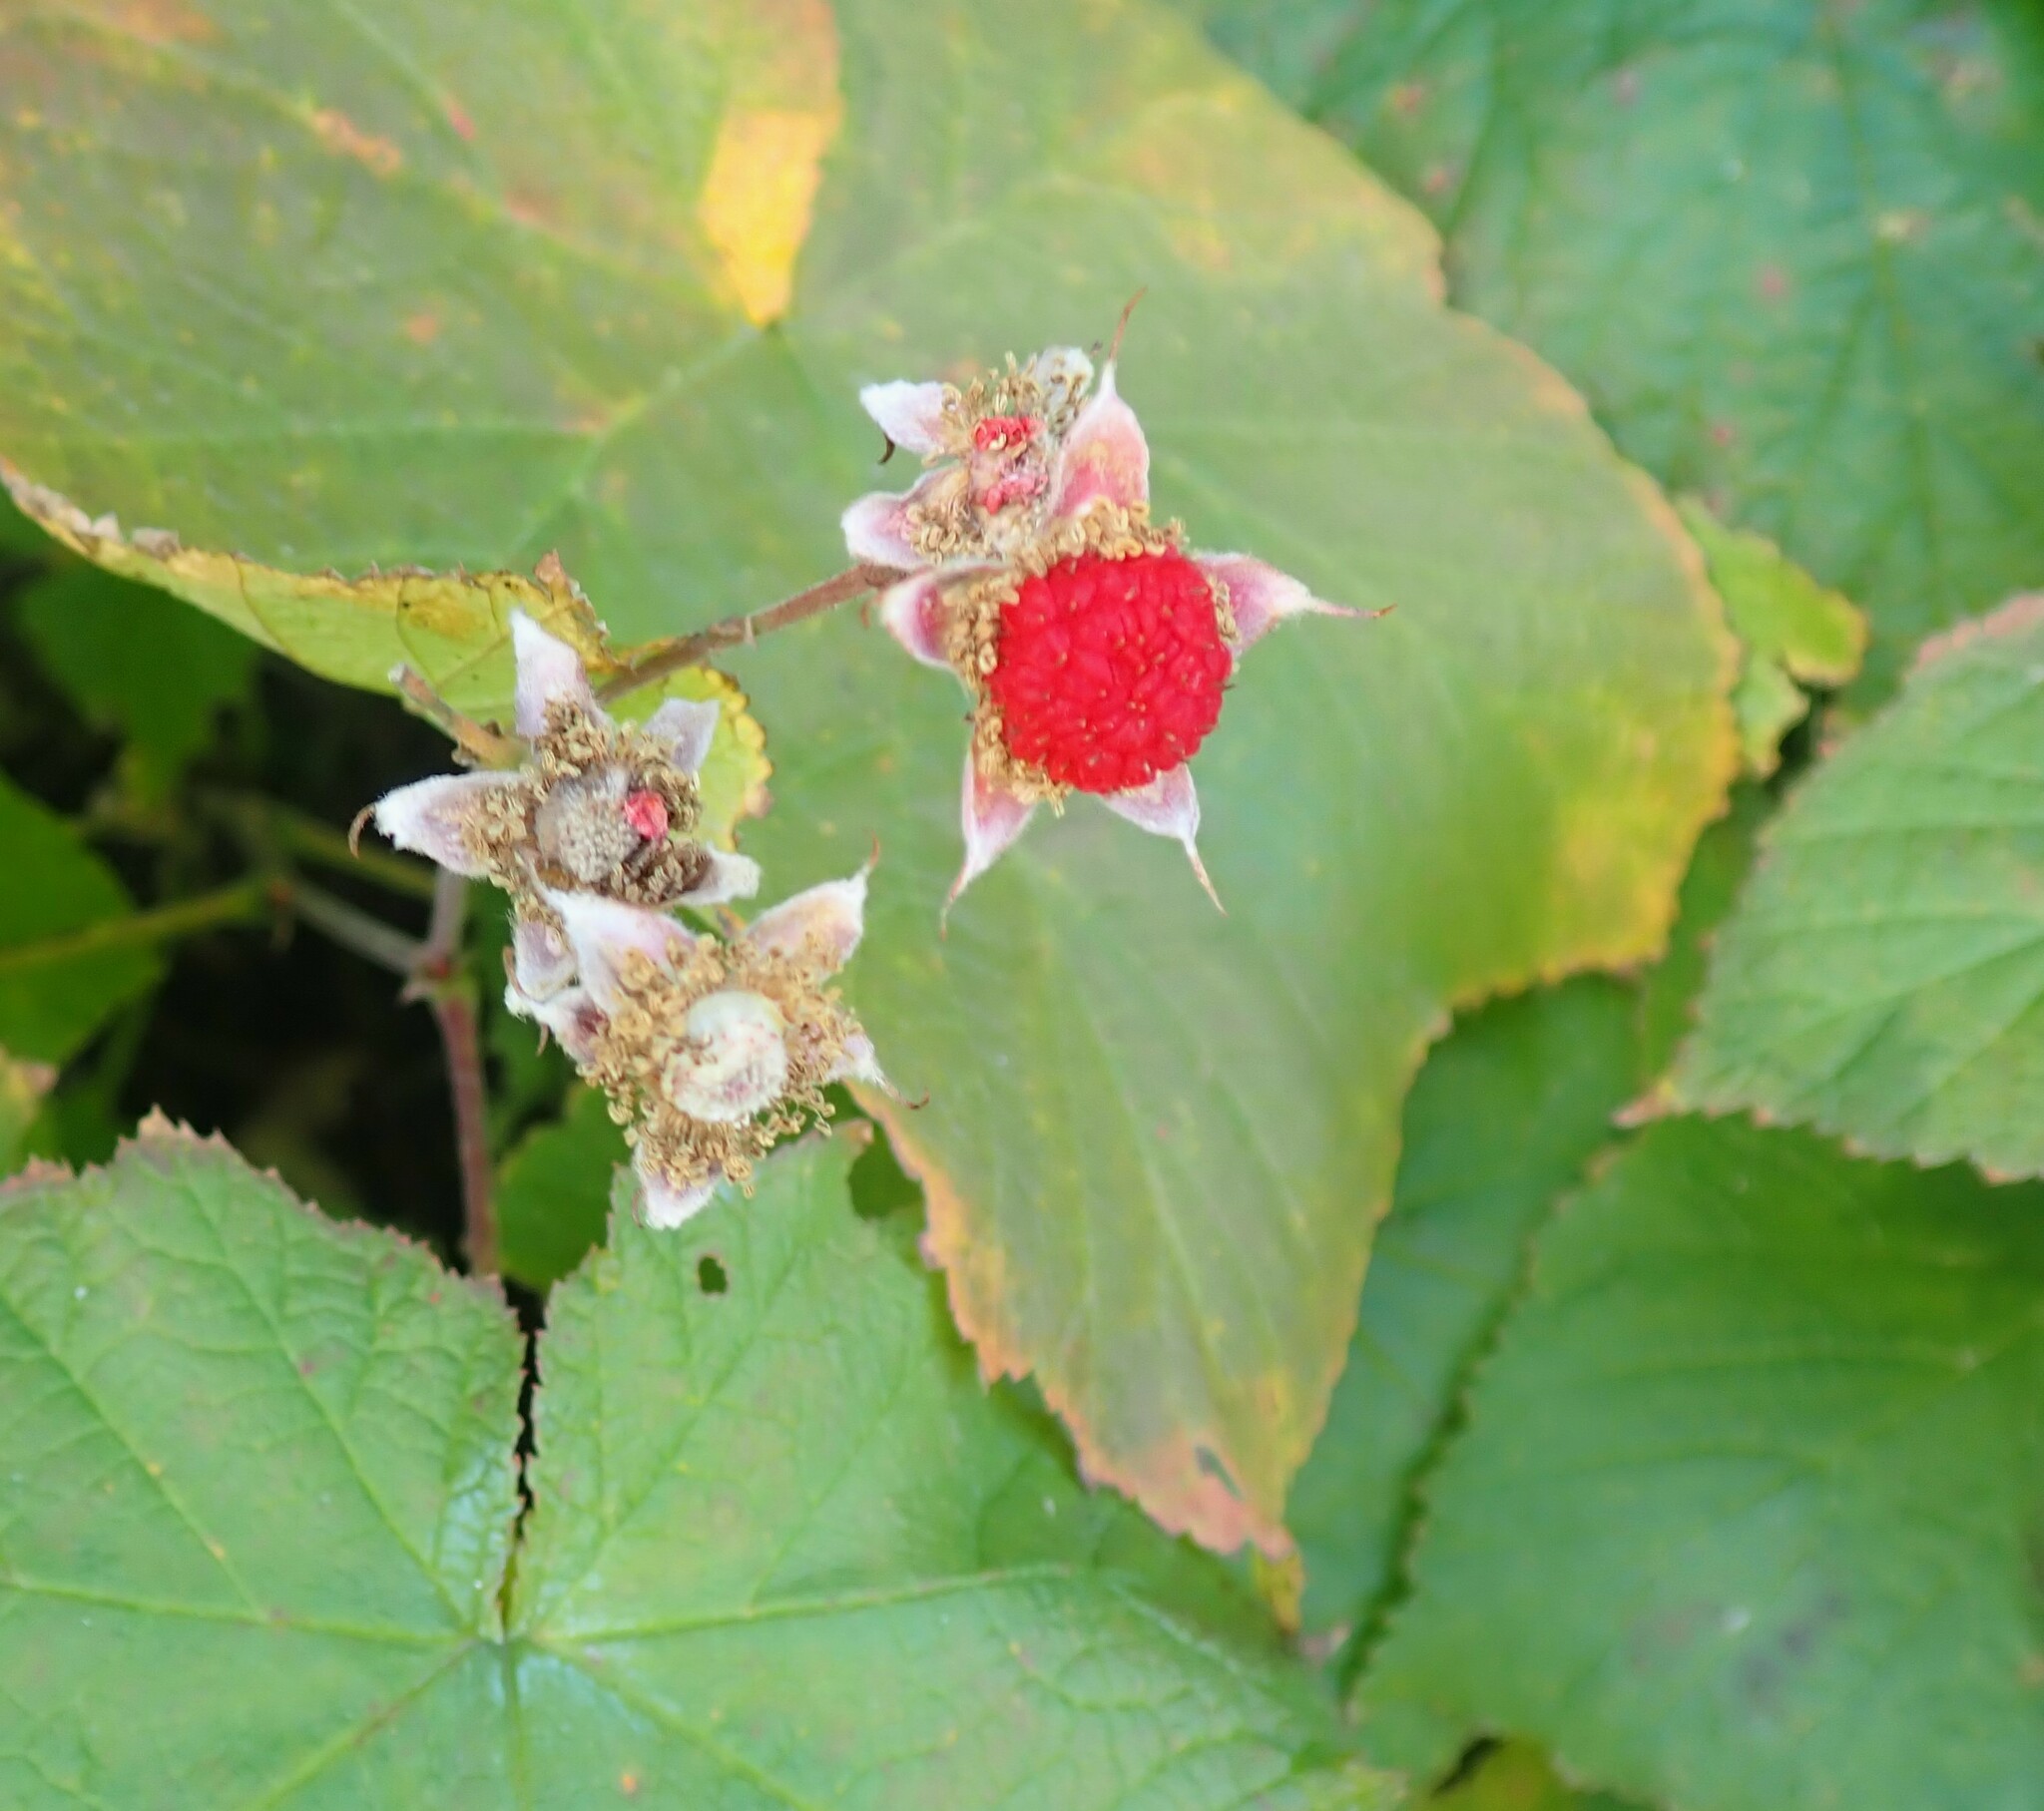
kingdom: Plantae
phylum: Tracheophyta
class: Magnoliopsida
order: Rosales
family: Rosaceae
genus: Rubus
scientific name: Rubus parviflorus
